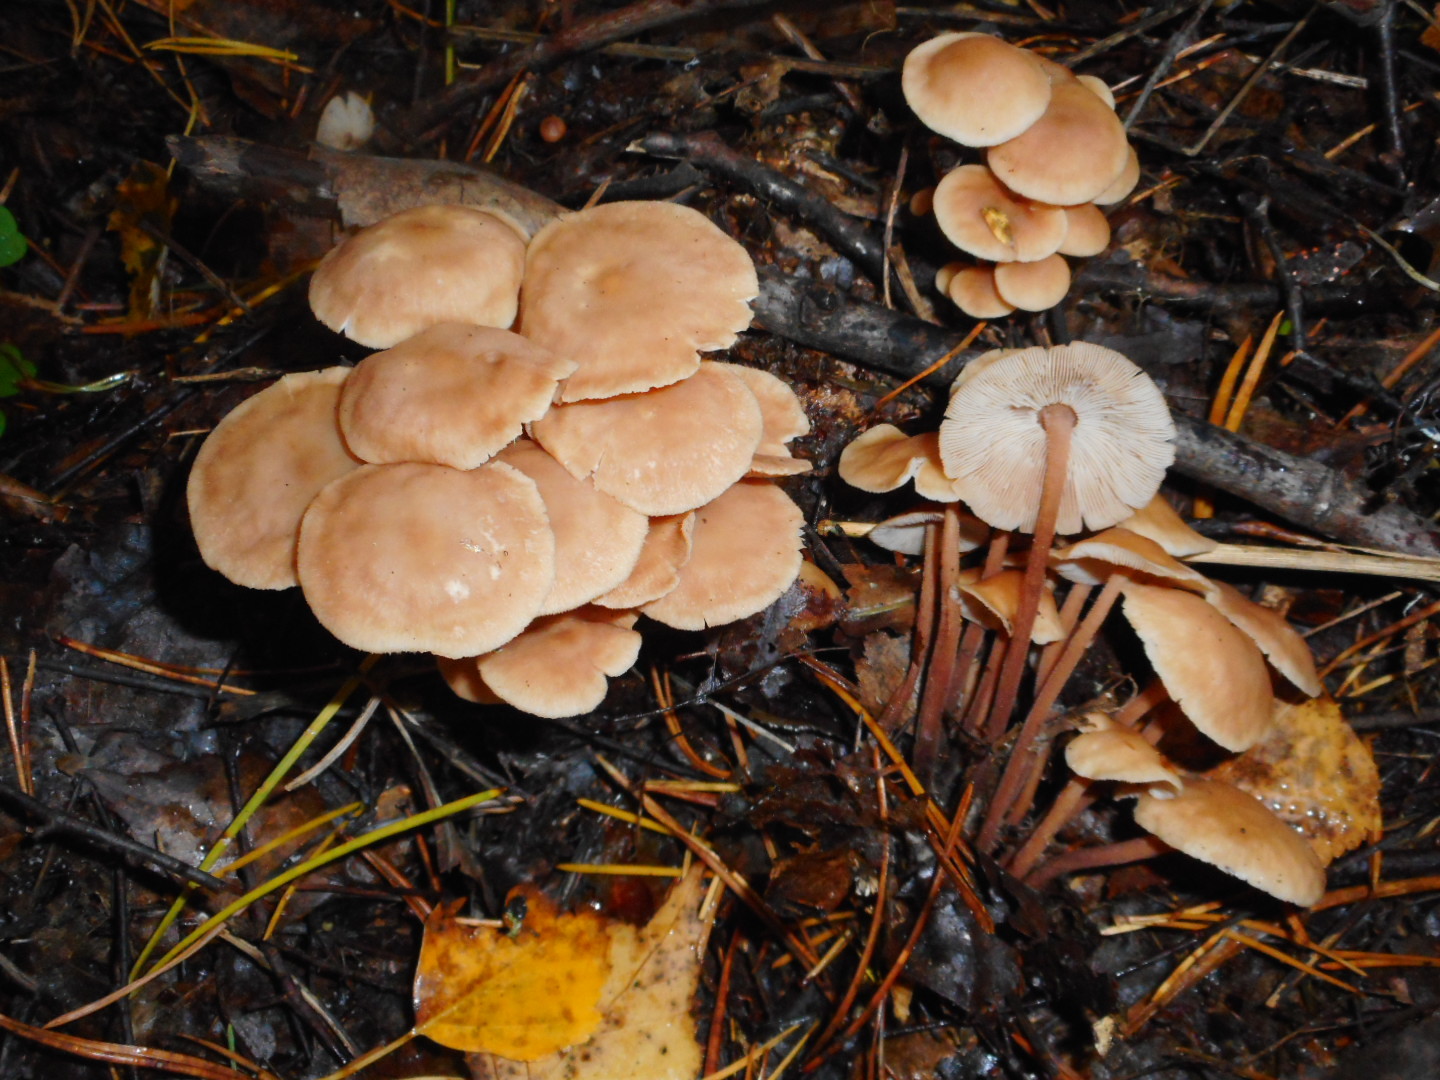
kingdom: Fungi
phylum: Basidiomycota
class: Agaricomycetes
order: Agaricales
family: Omphalotaceae
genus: Collybiopsis
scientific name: Collybiopsis confluens
